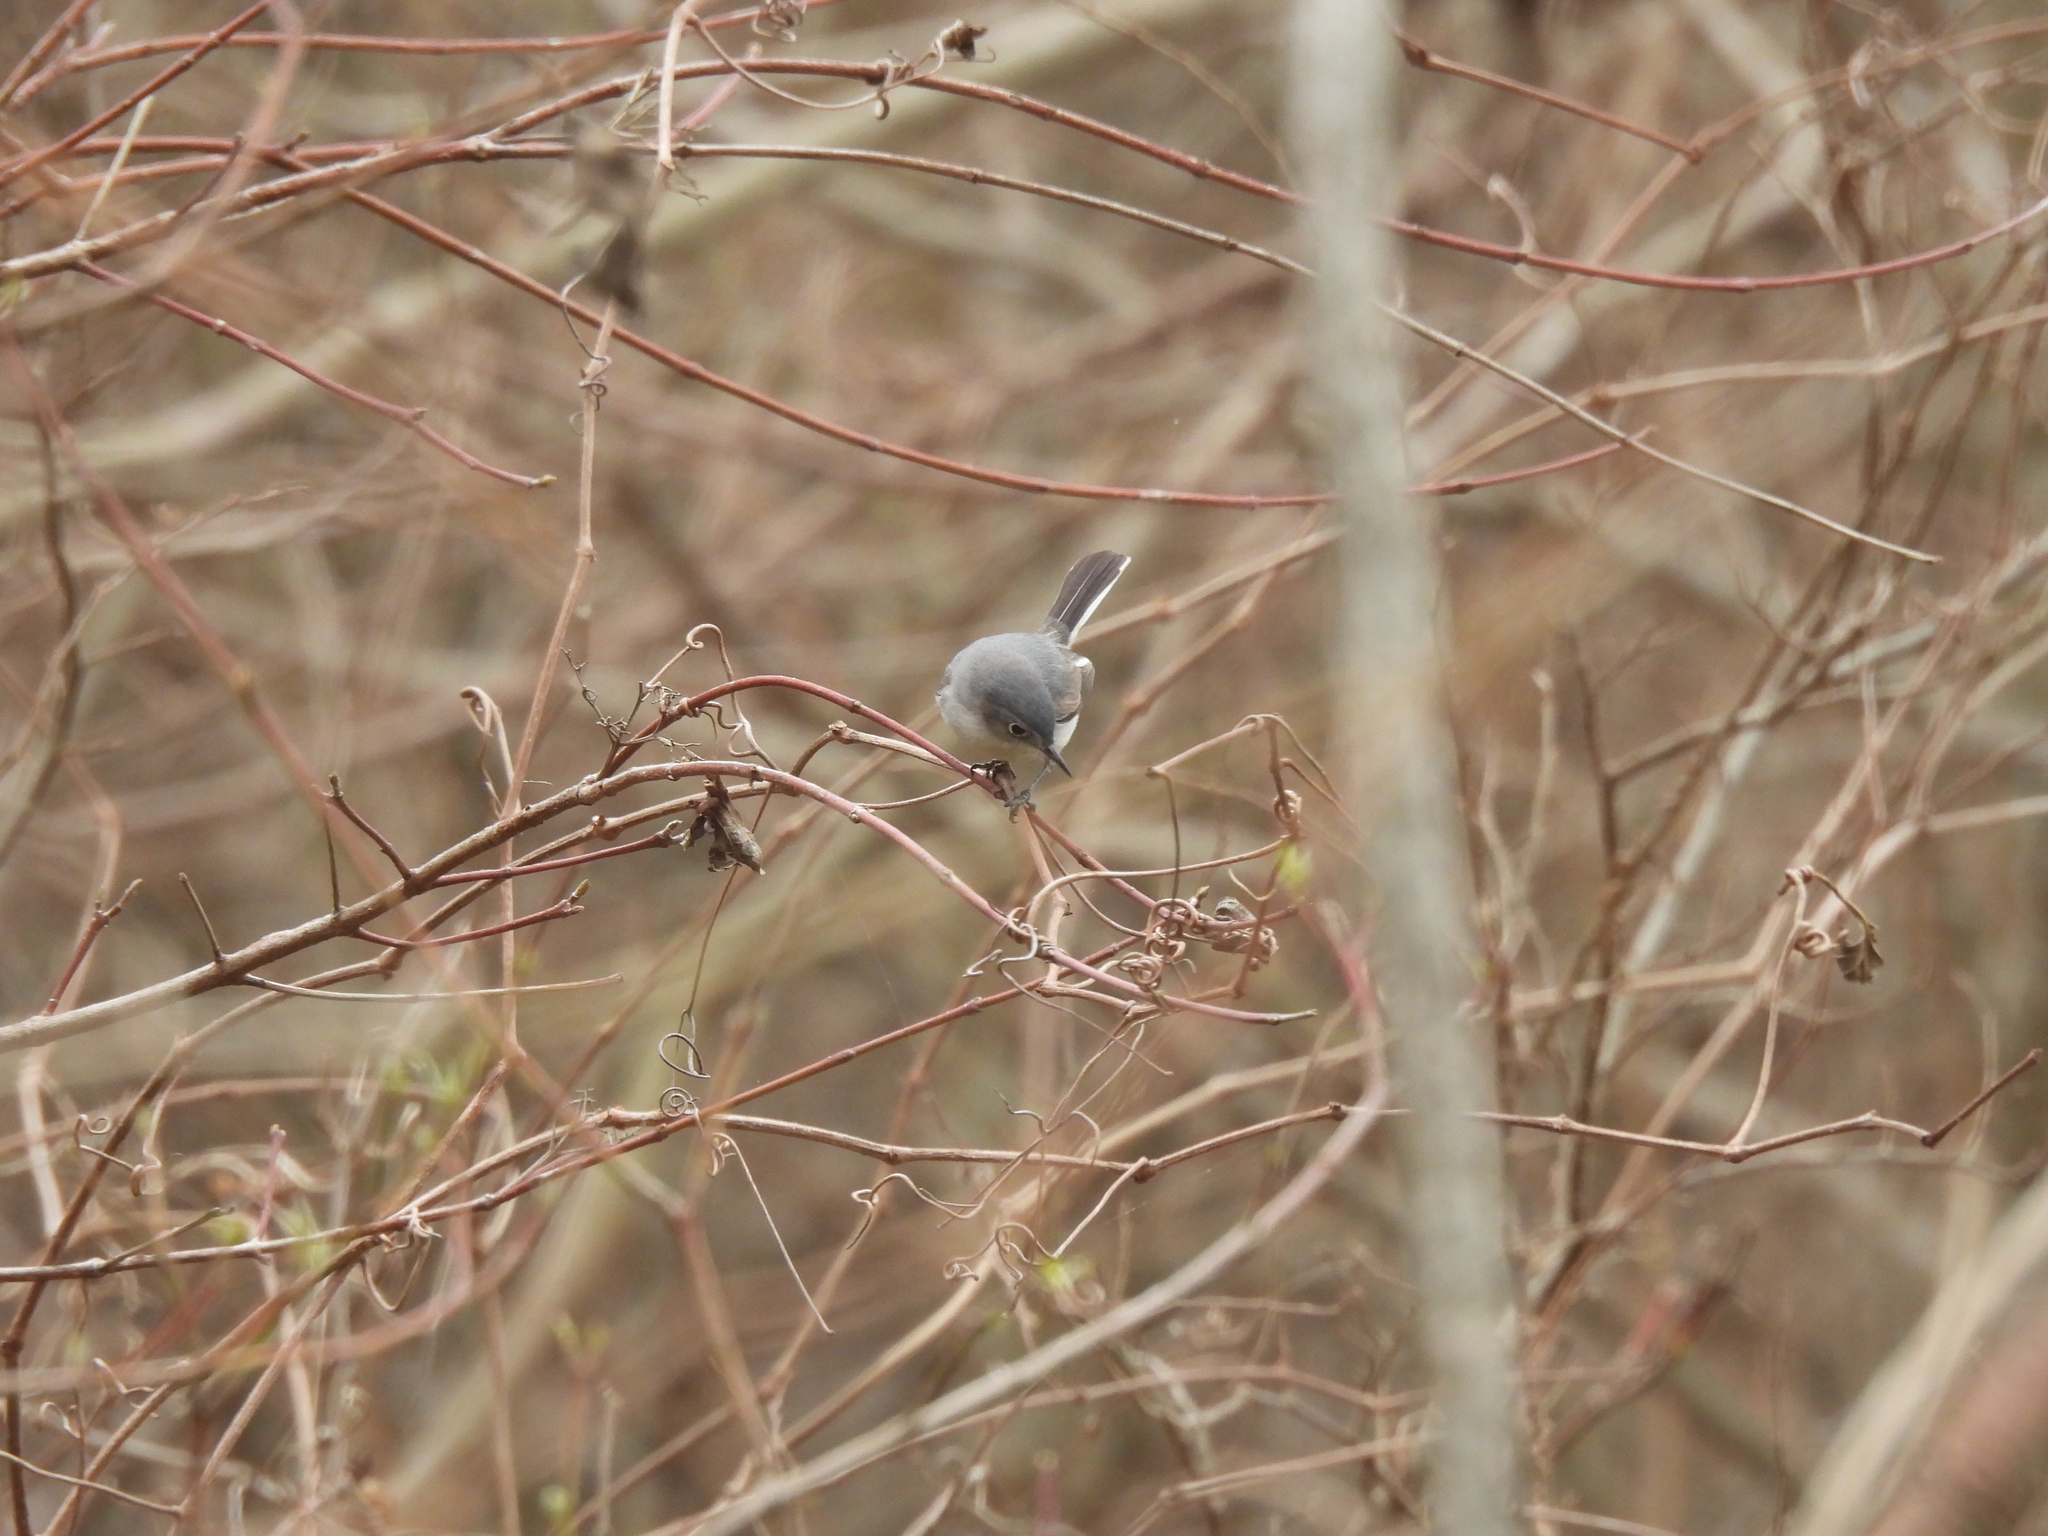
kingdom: Animalia
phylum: Chordata
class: Aves
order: Passeriformes
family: Polioptilidae
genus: Polioptila
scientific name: Polioptila caerulea
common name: Blue-gray gnatcatcher
